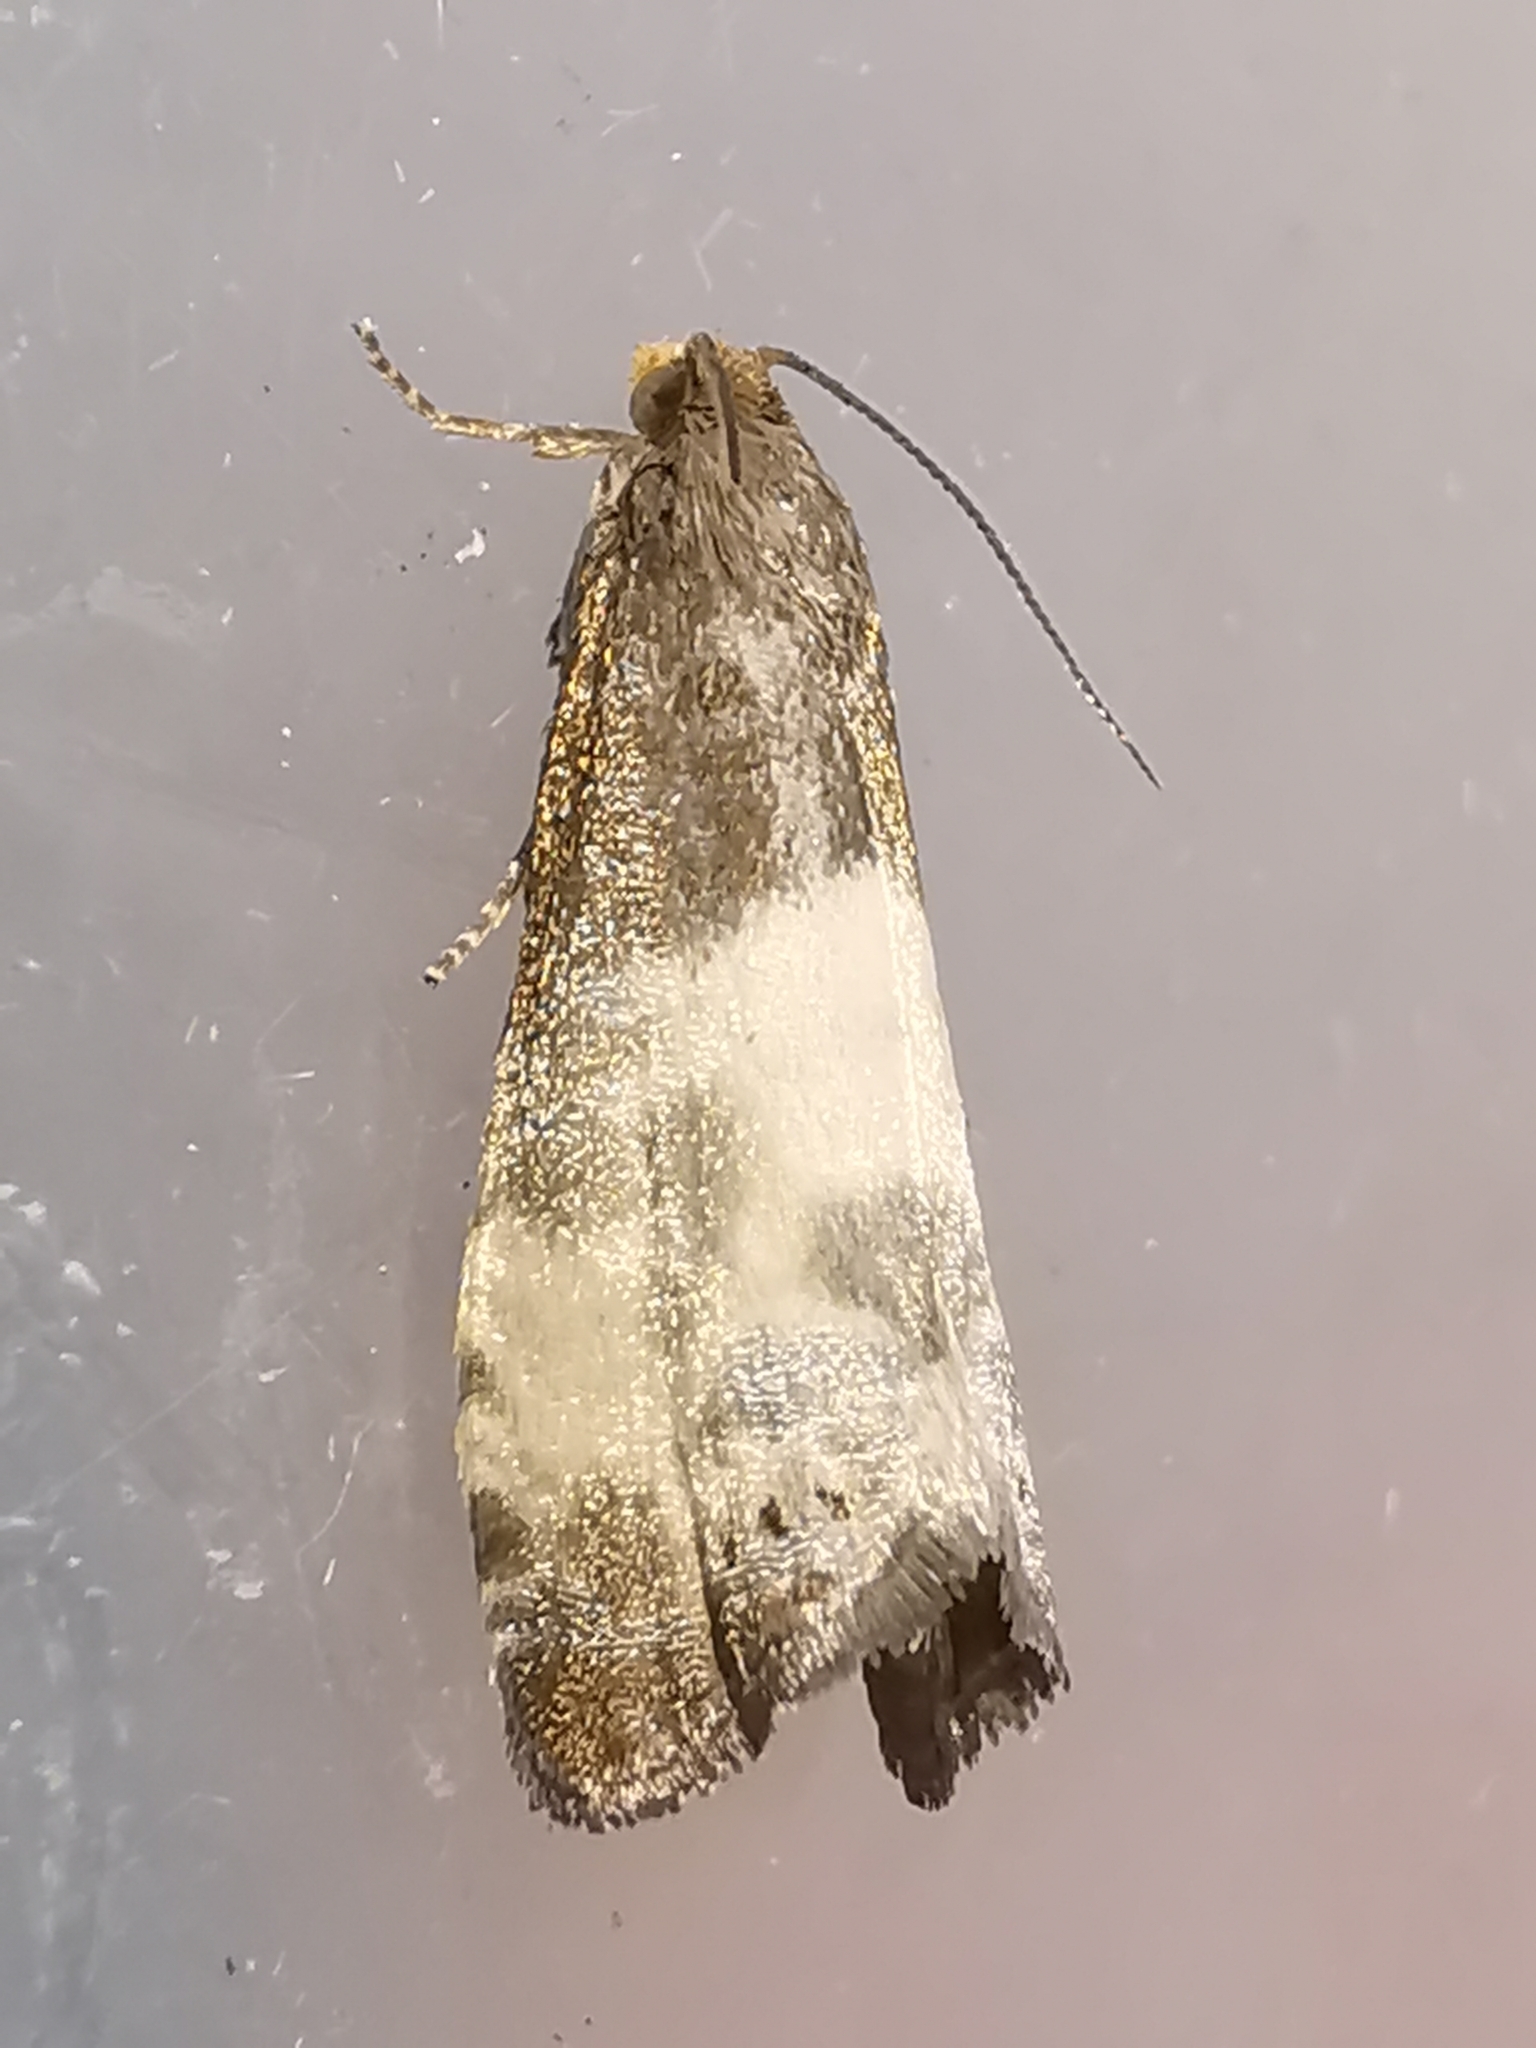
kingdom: Animalia
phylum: Arthropoda
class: Insecta
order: Lepidoptera
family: Tortricidae
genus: Notocelia
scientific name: Notocelia cynosbatella
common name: Yellow-faced bell moth
